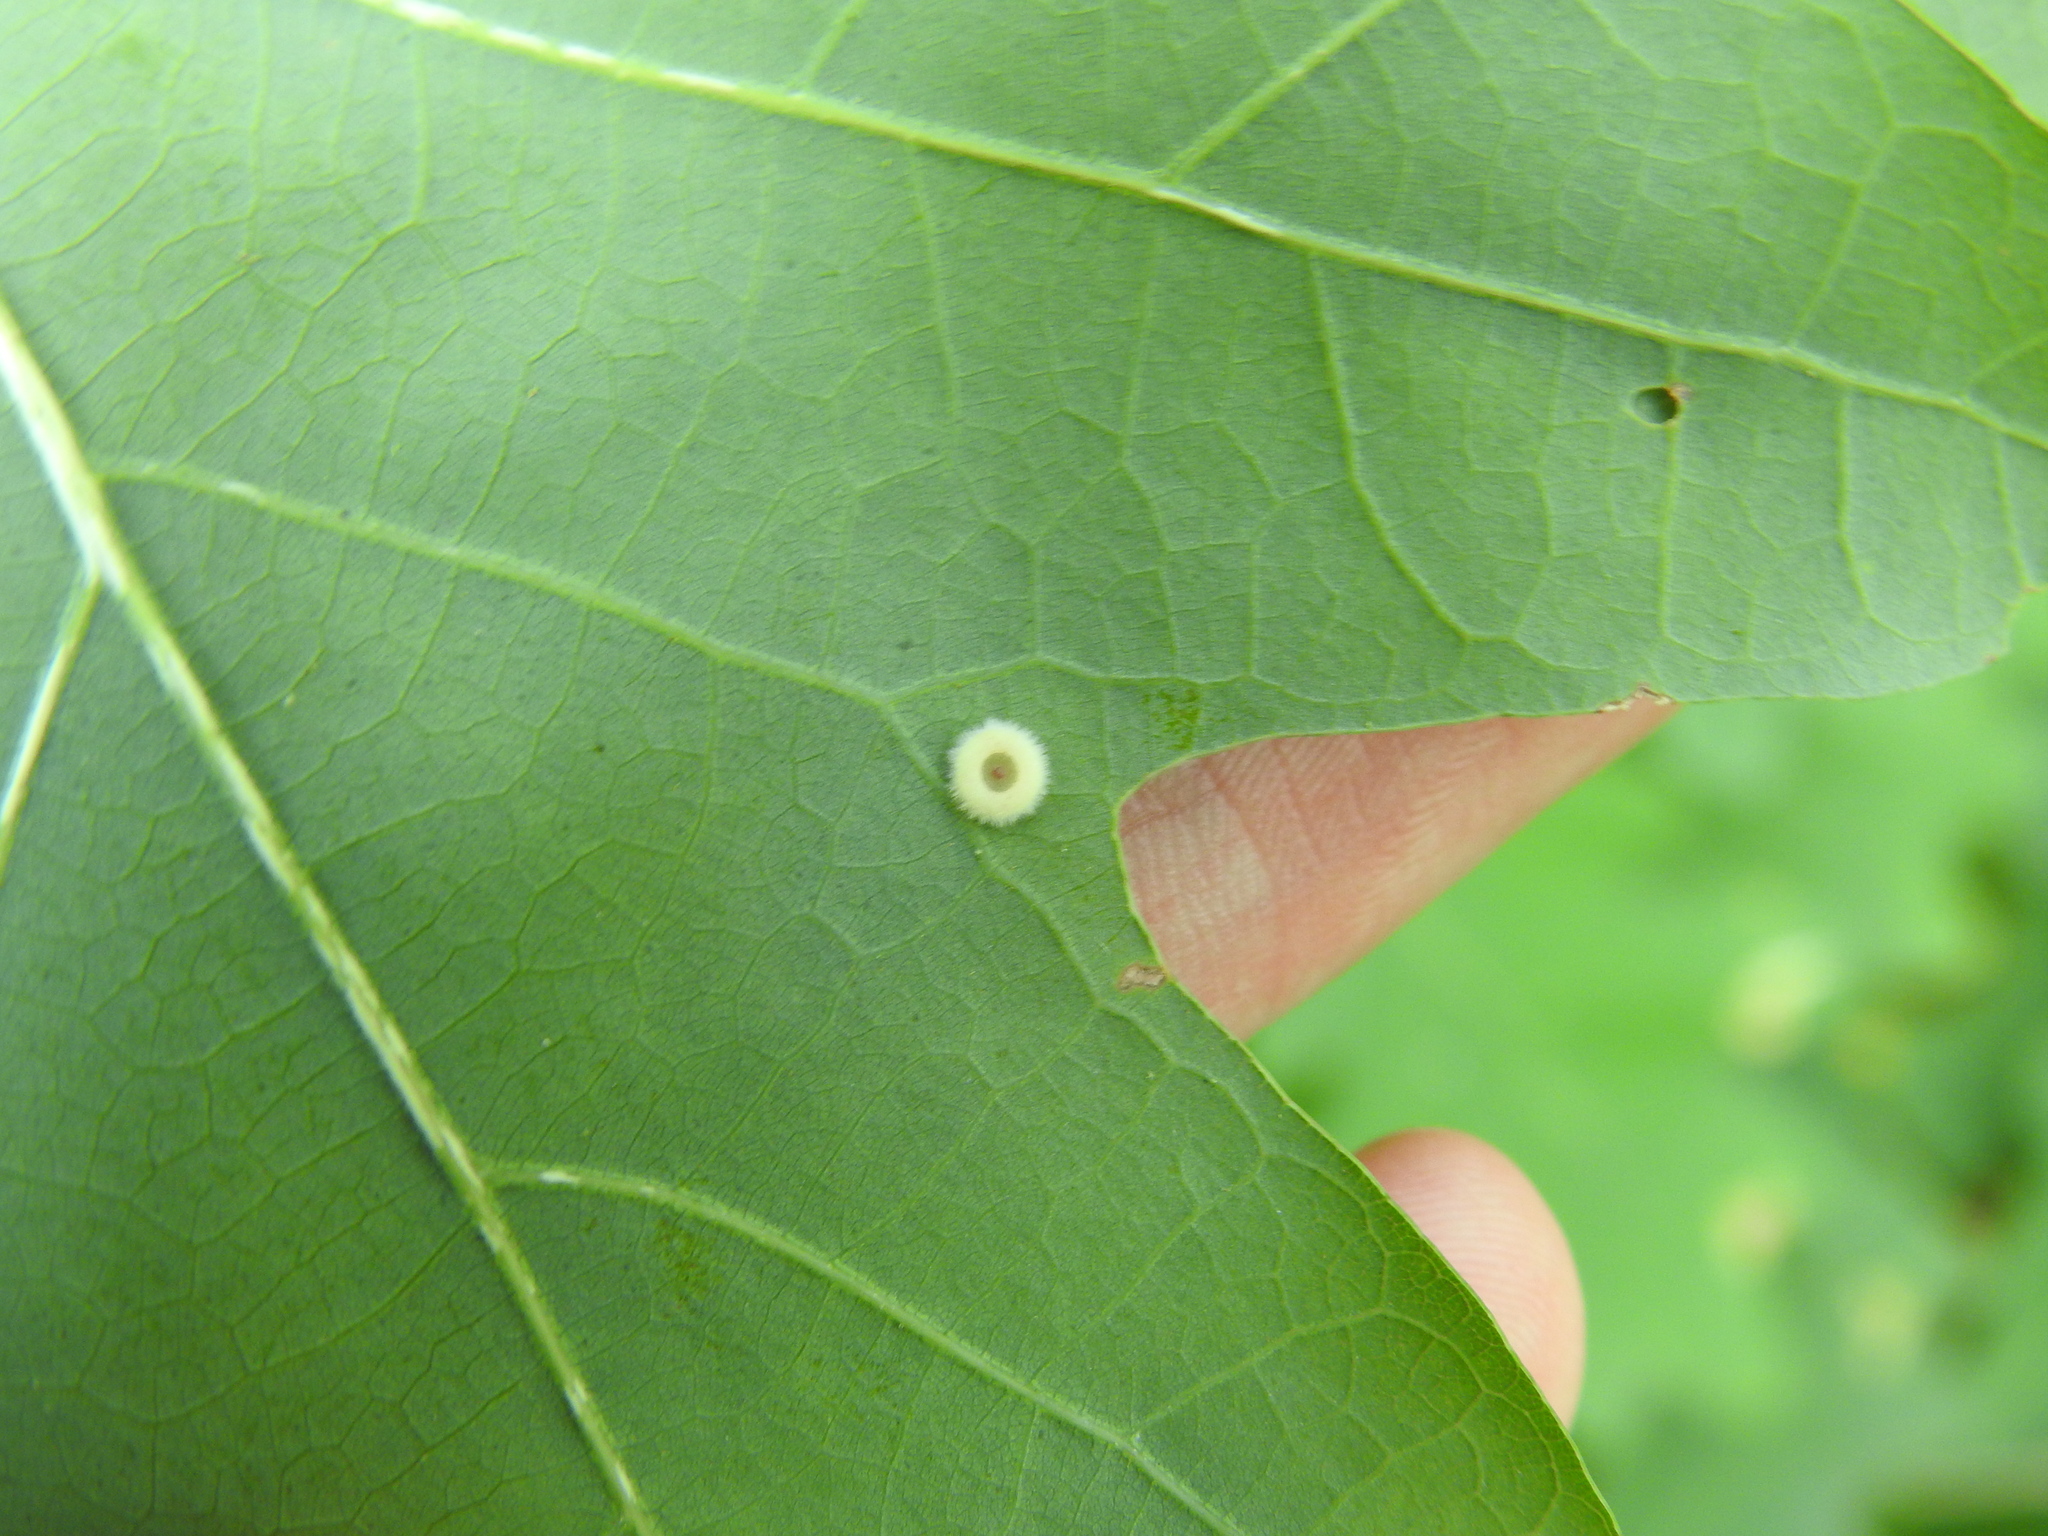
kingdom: Animalia
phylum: Arthropoda
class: Insecta
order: Hymenoptera
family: Cynipidae
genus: Neuroterus
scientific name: Neuroterus
